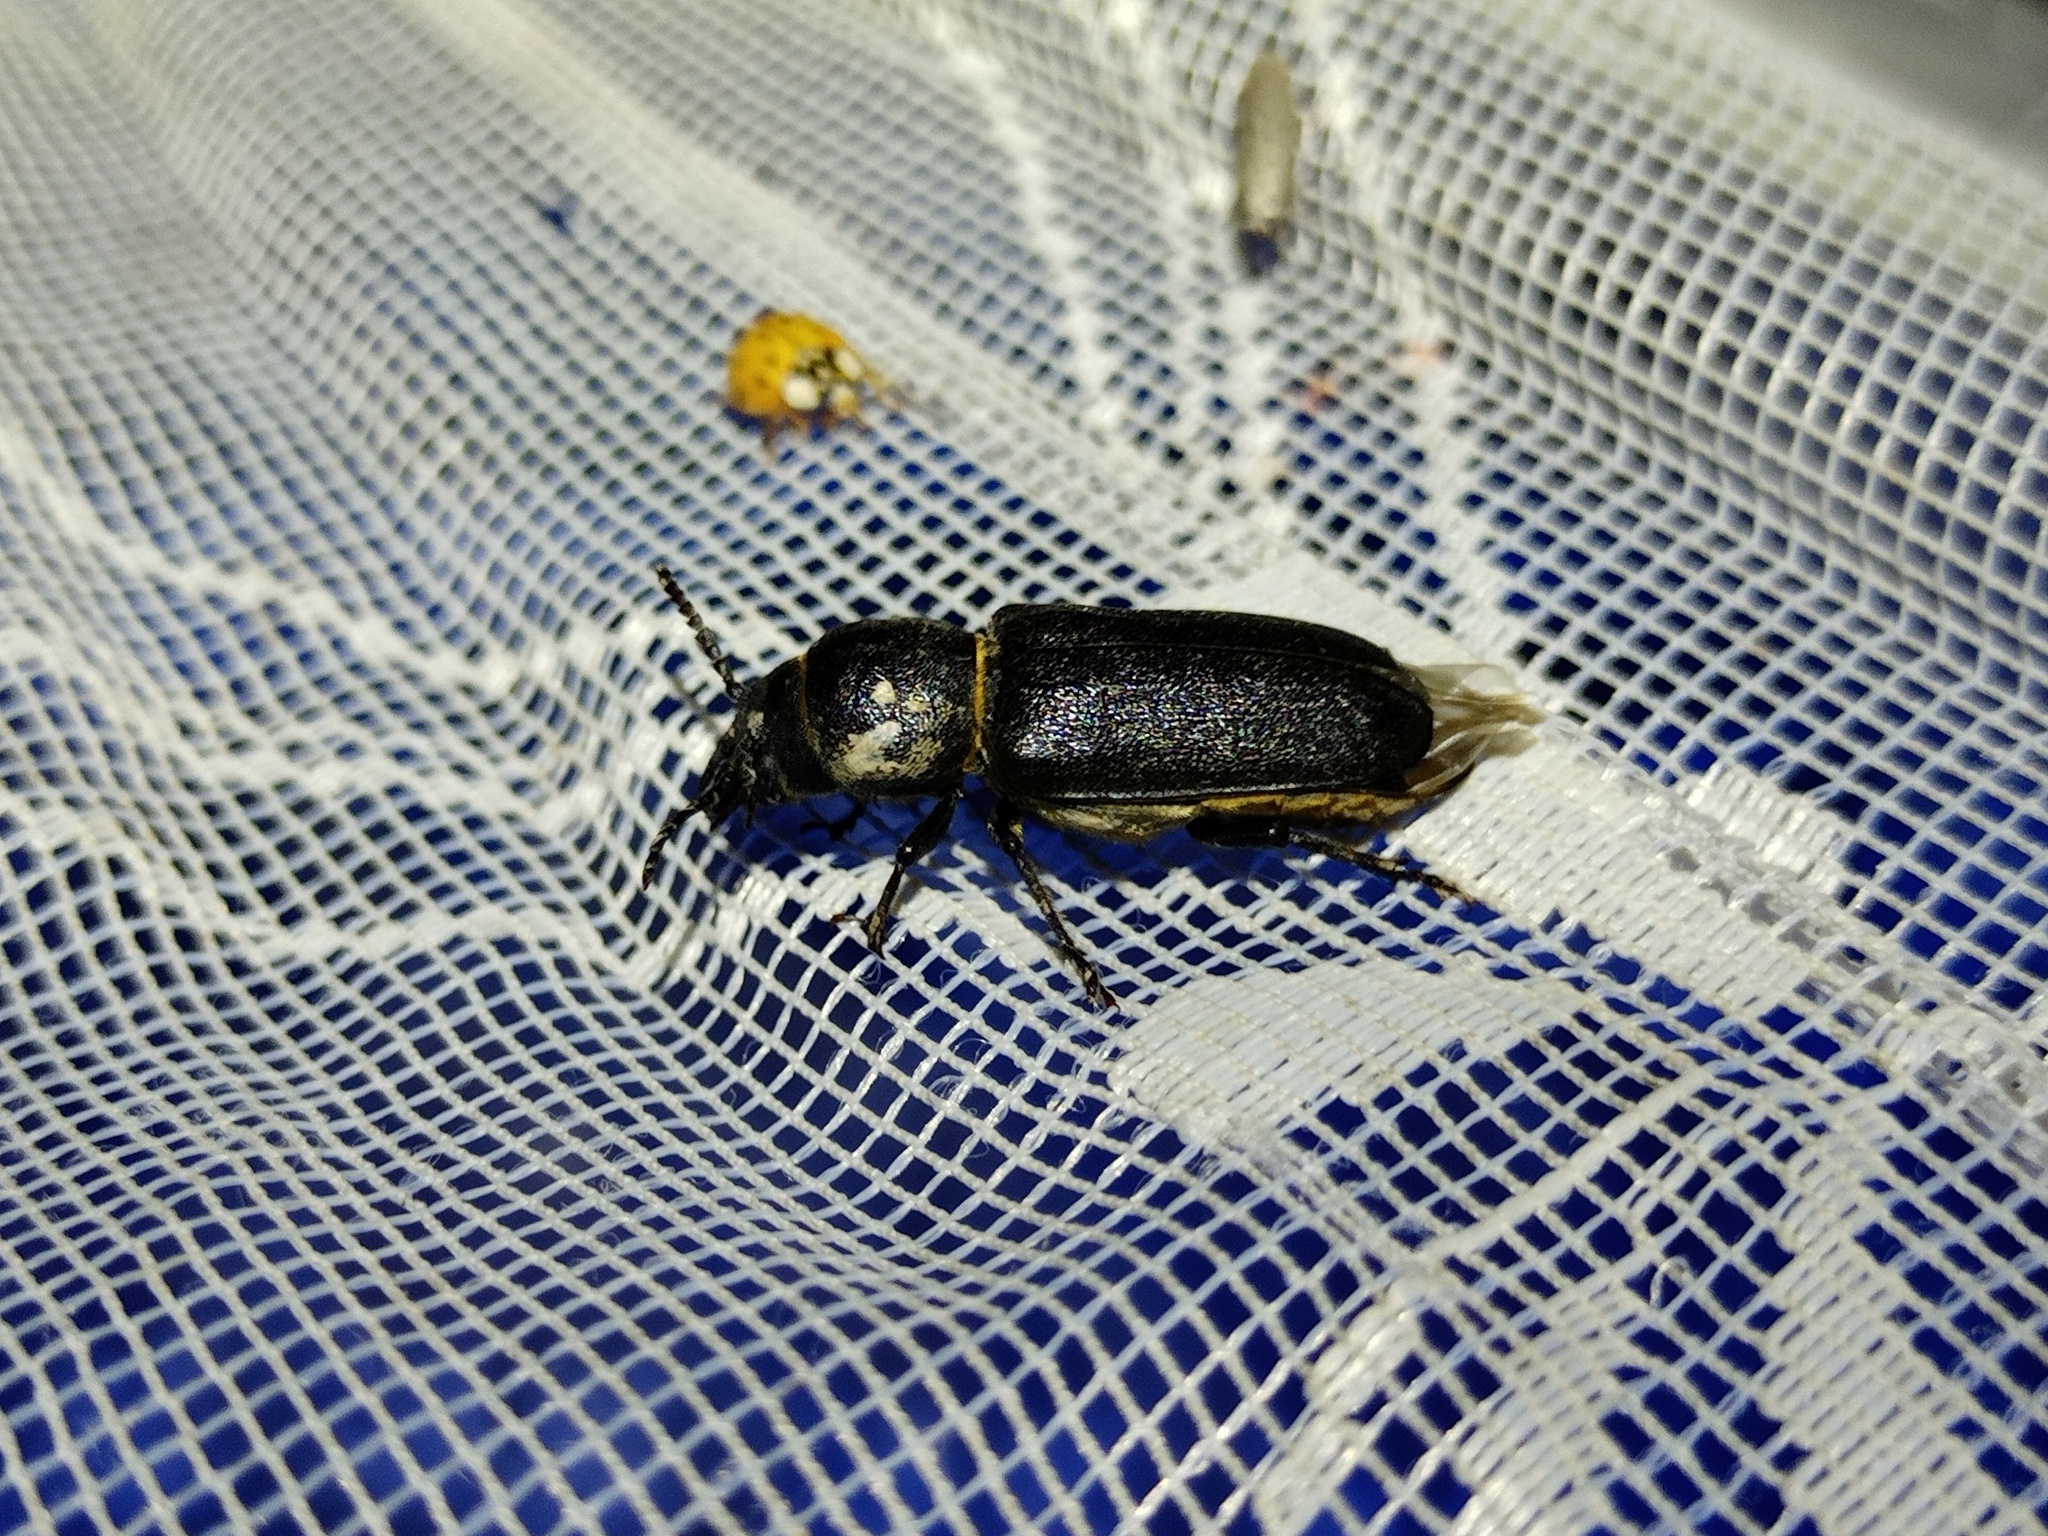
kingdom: Animalia
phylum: Arthropoda
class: Insecta
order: Coleoptera
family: Cerambycidae
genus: Spondylis
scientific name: Spondylis buprestoides
